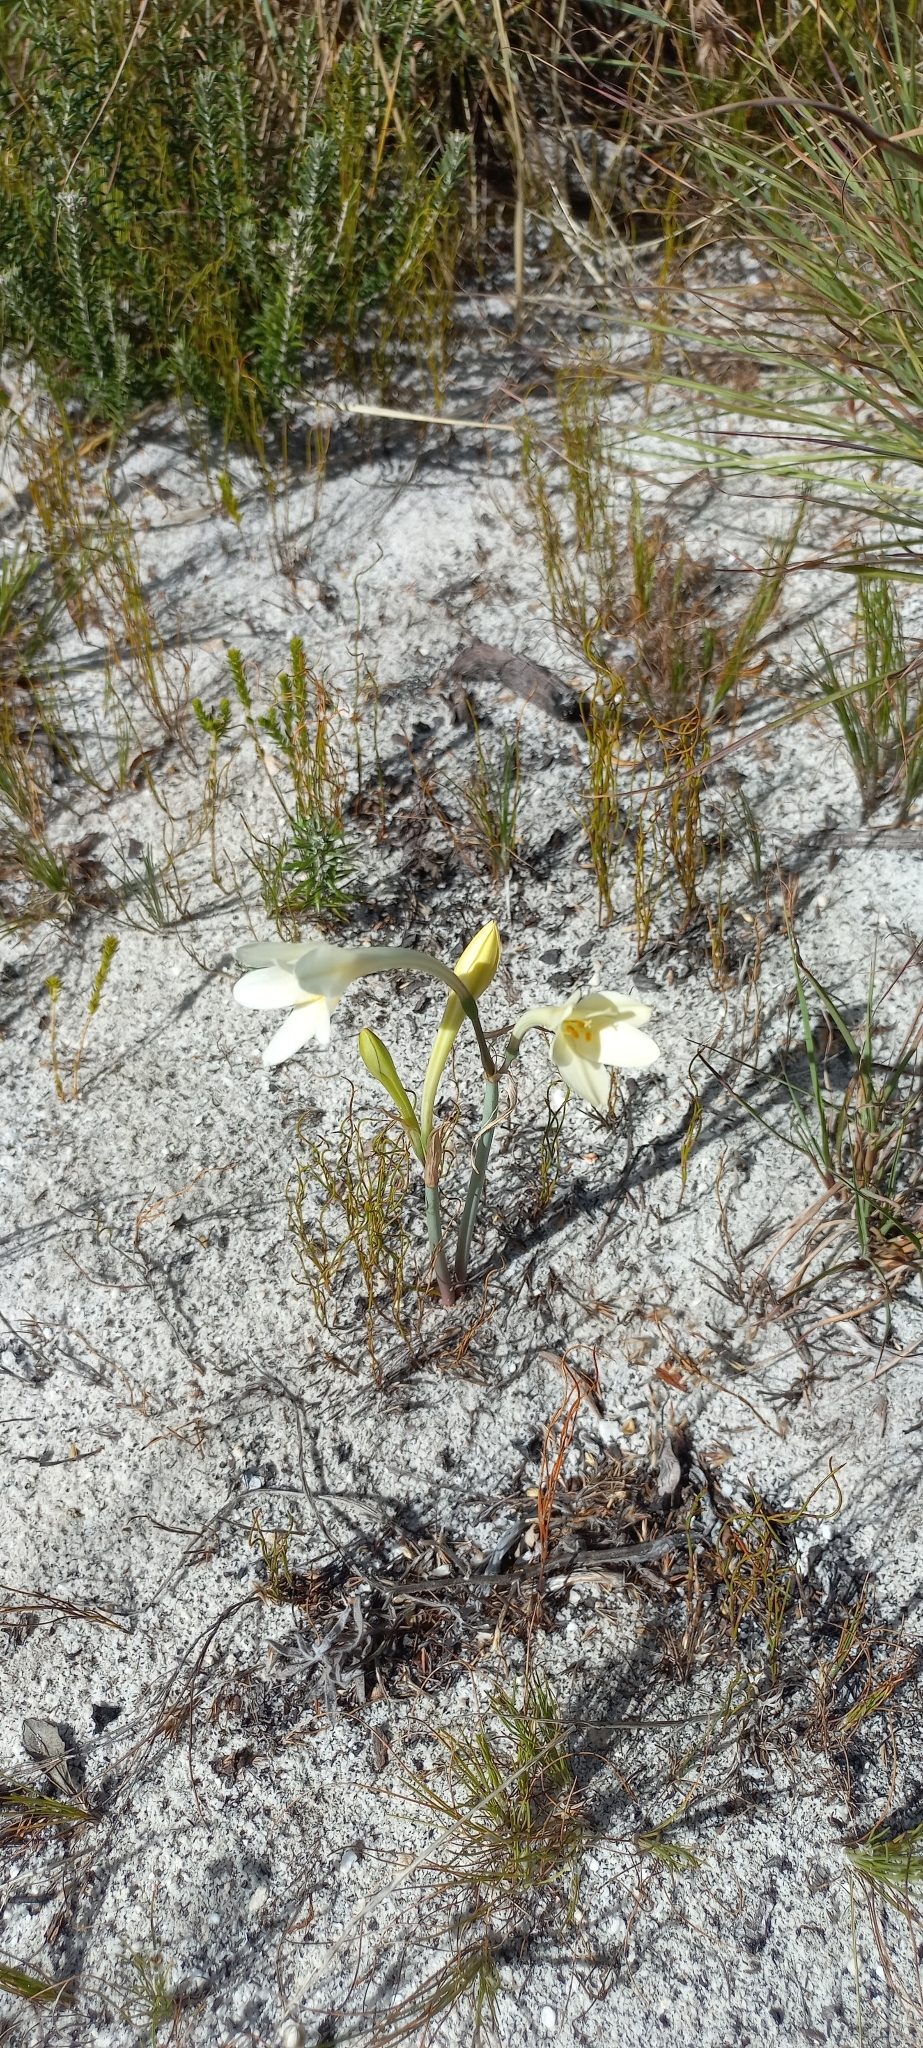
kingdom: Plantae
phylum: Tracheophyta
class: Liliopsida
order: Asparagales
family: Amaryllidaceae
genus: Cyrtanthus
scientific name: Cyrtanthus leucanthus
